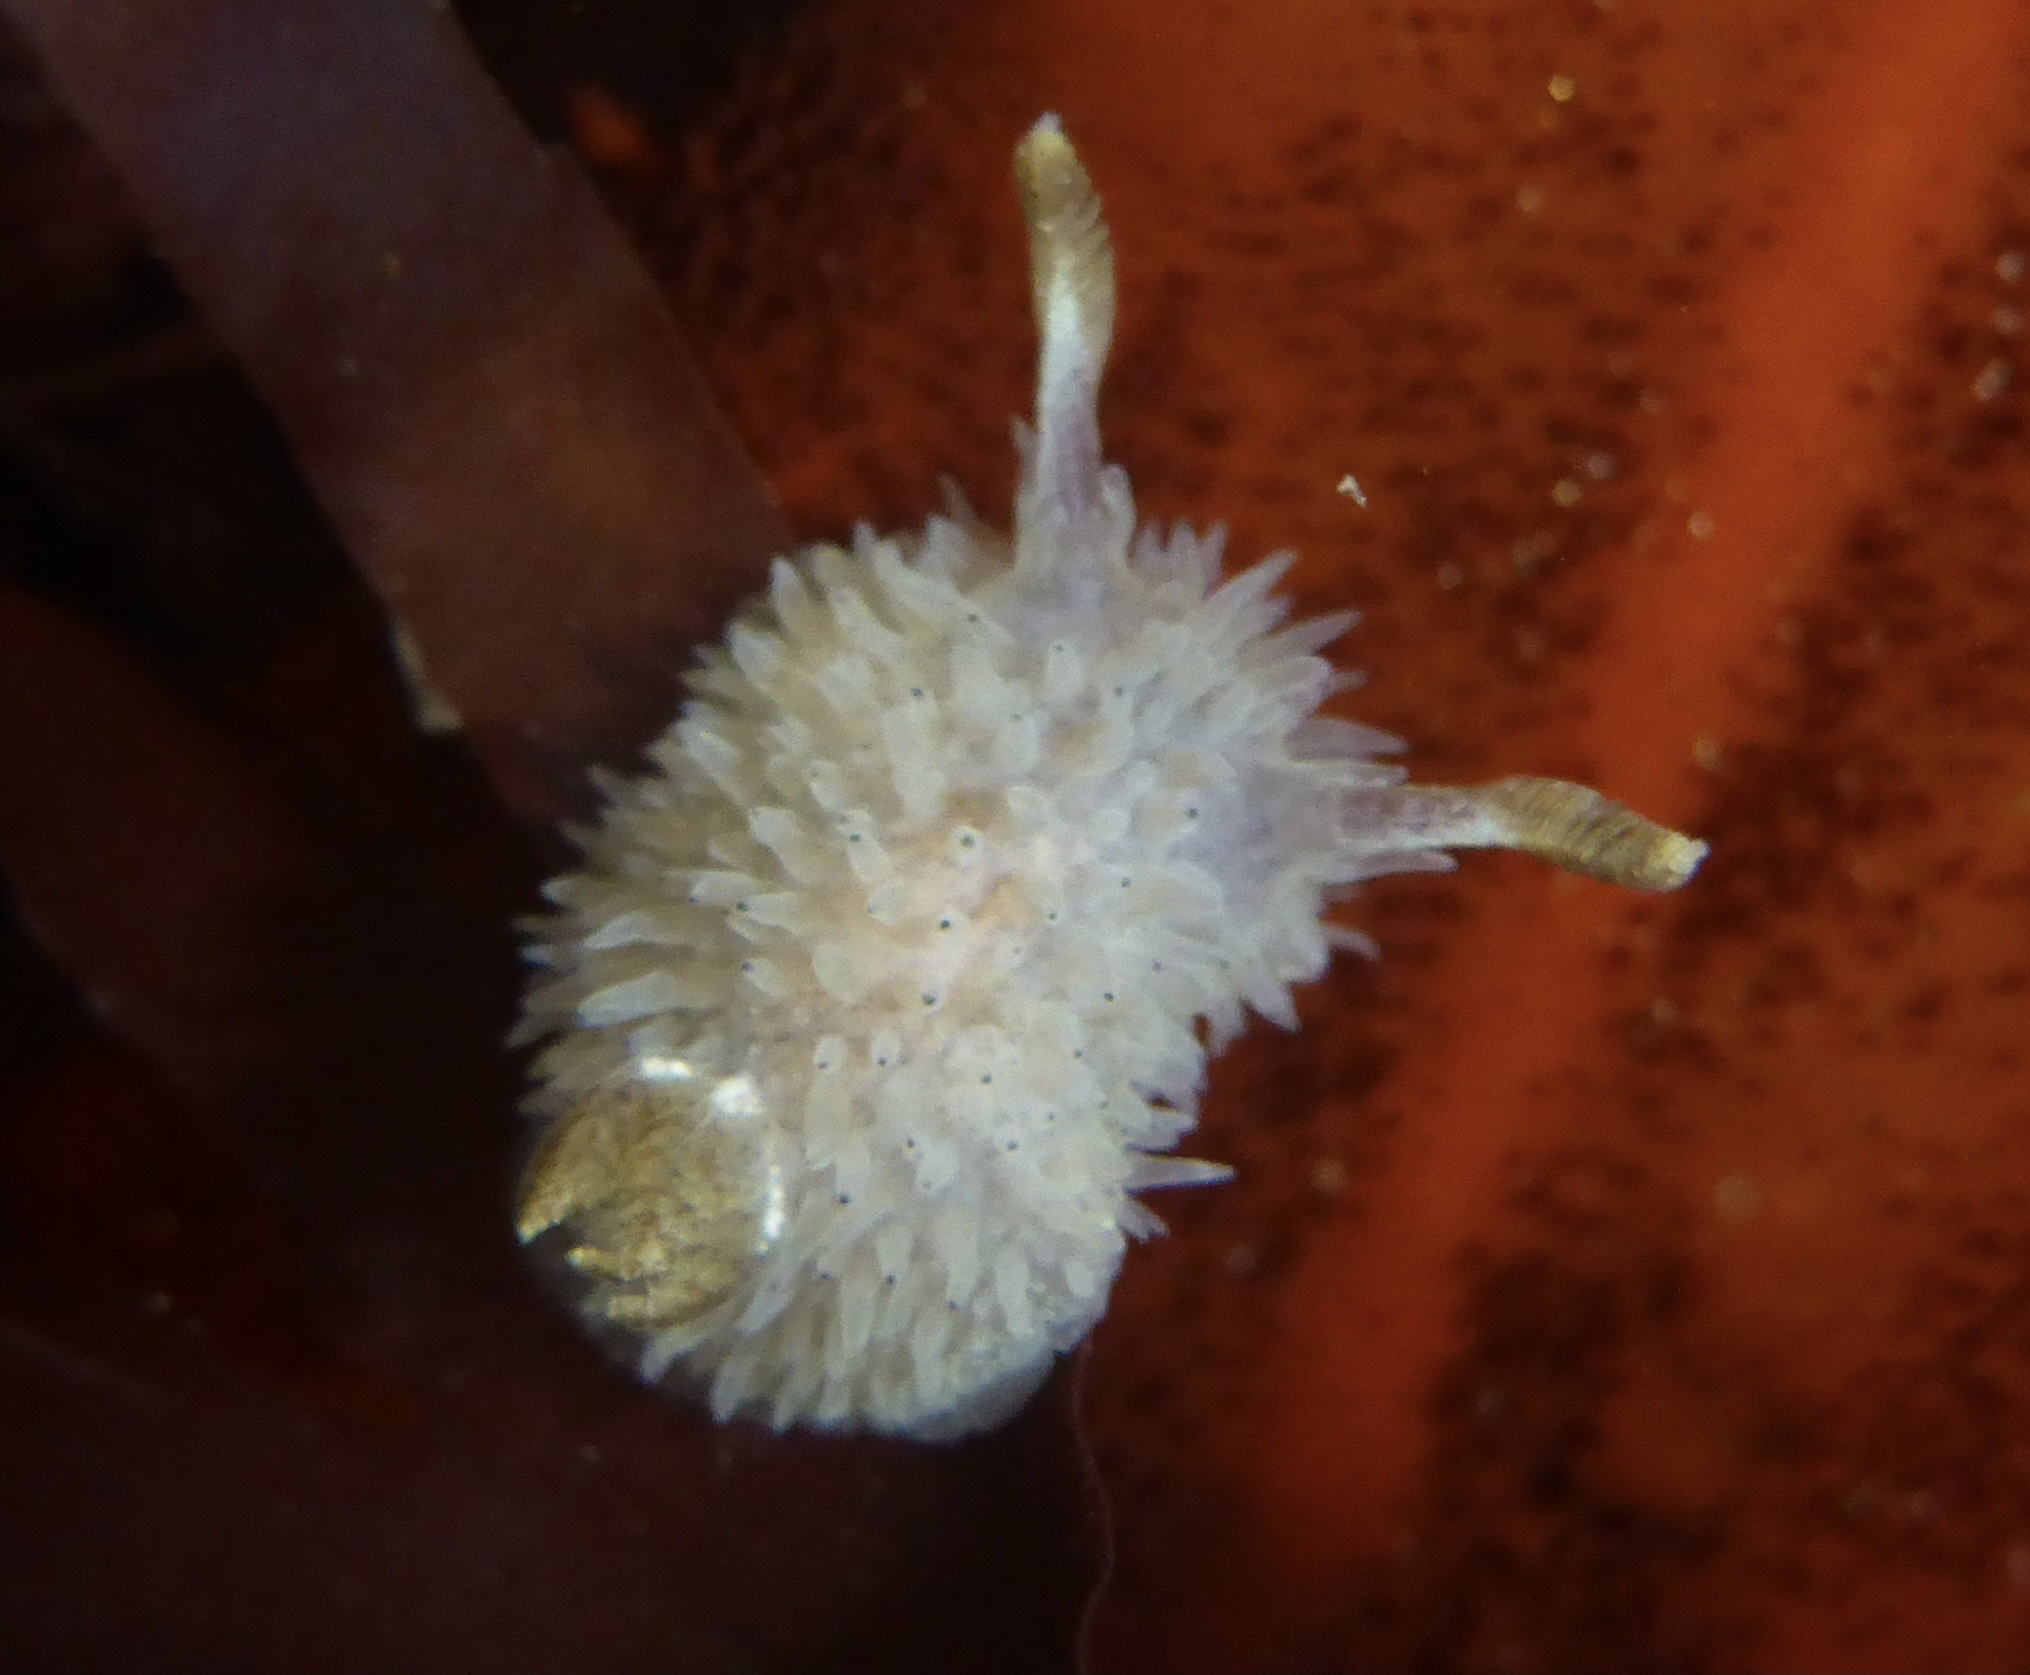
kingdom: Animalia
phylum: Mollusca
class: Gastropoda
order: Nudibranchia
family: Onchidorididae
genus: Acanthodoris
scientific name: Acanthodoris rhodoceras
